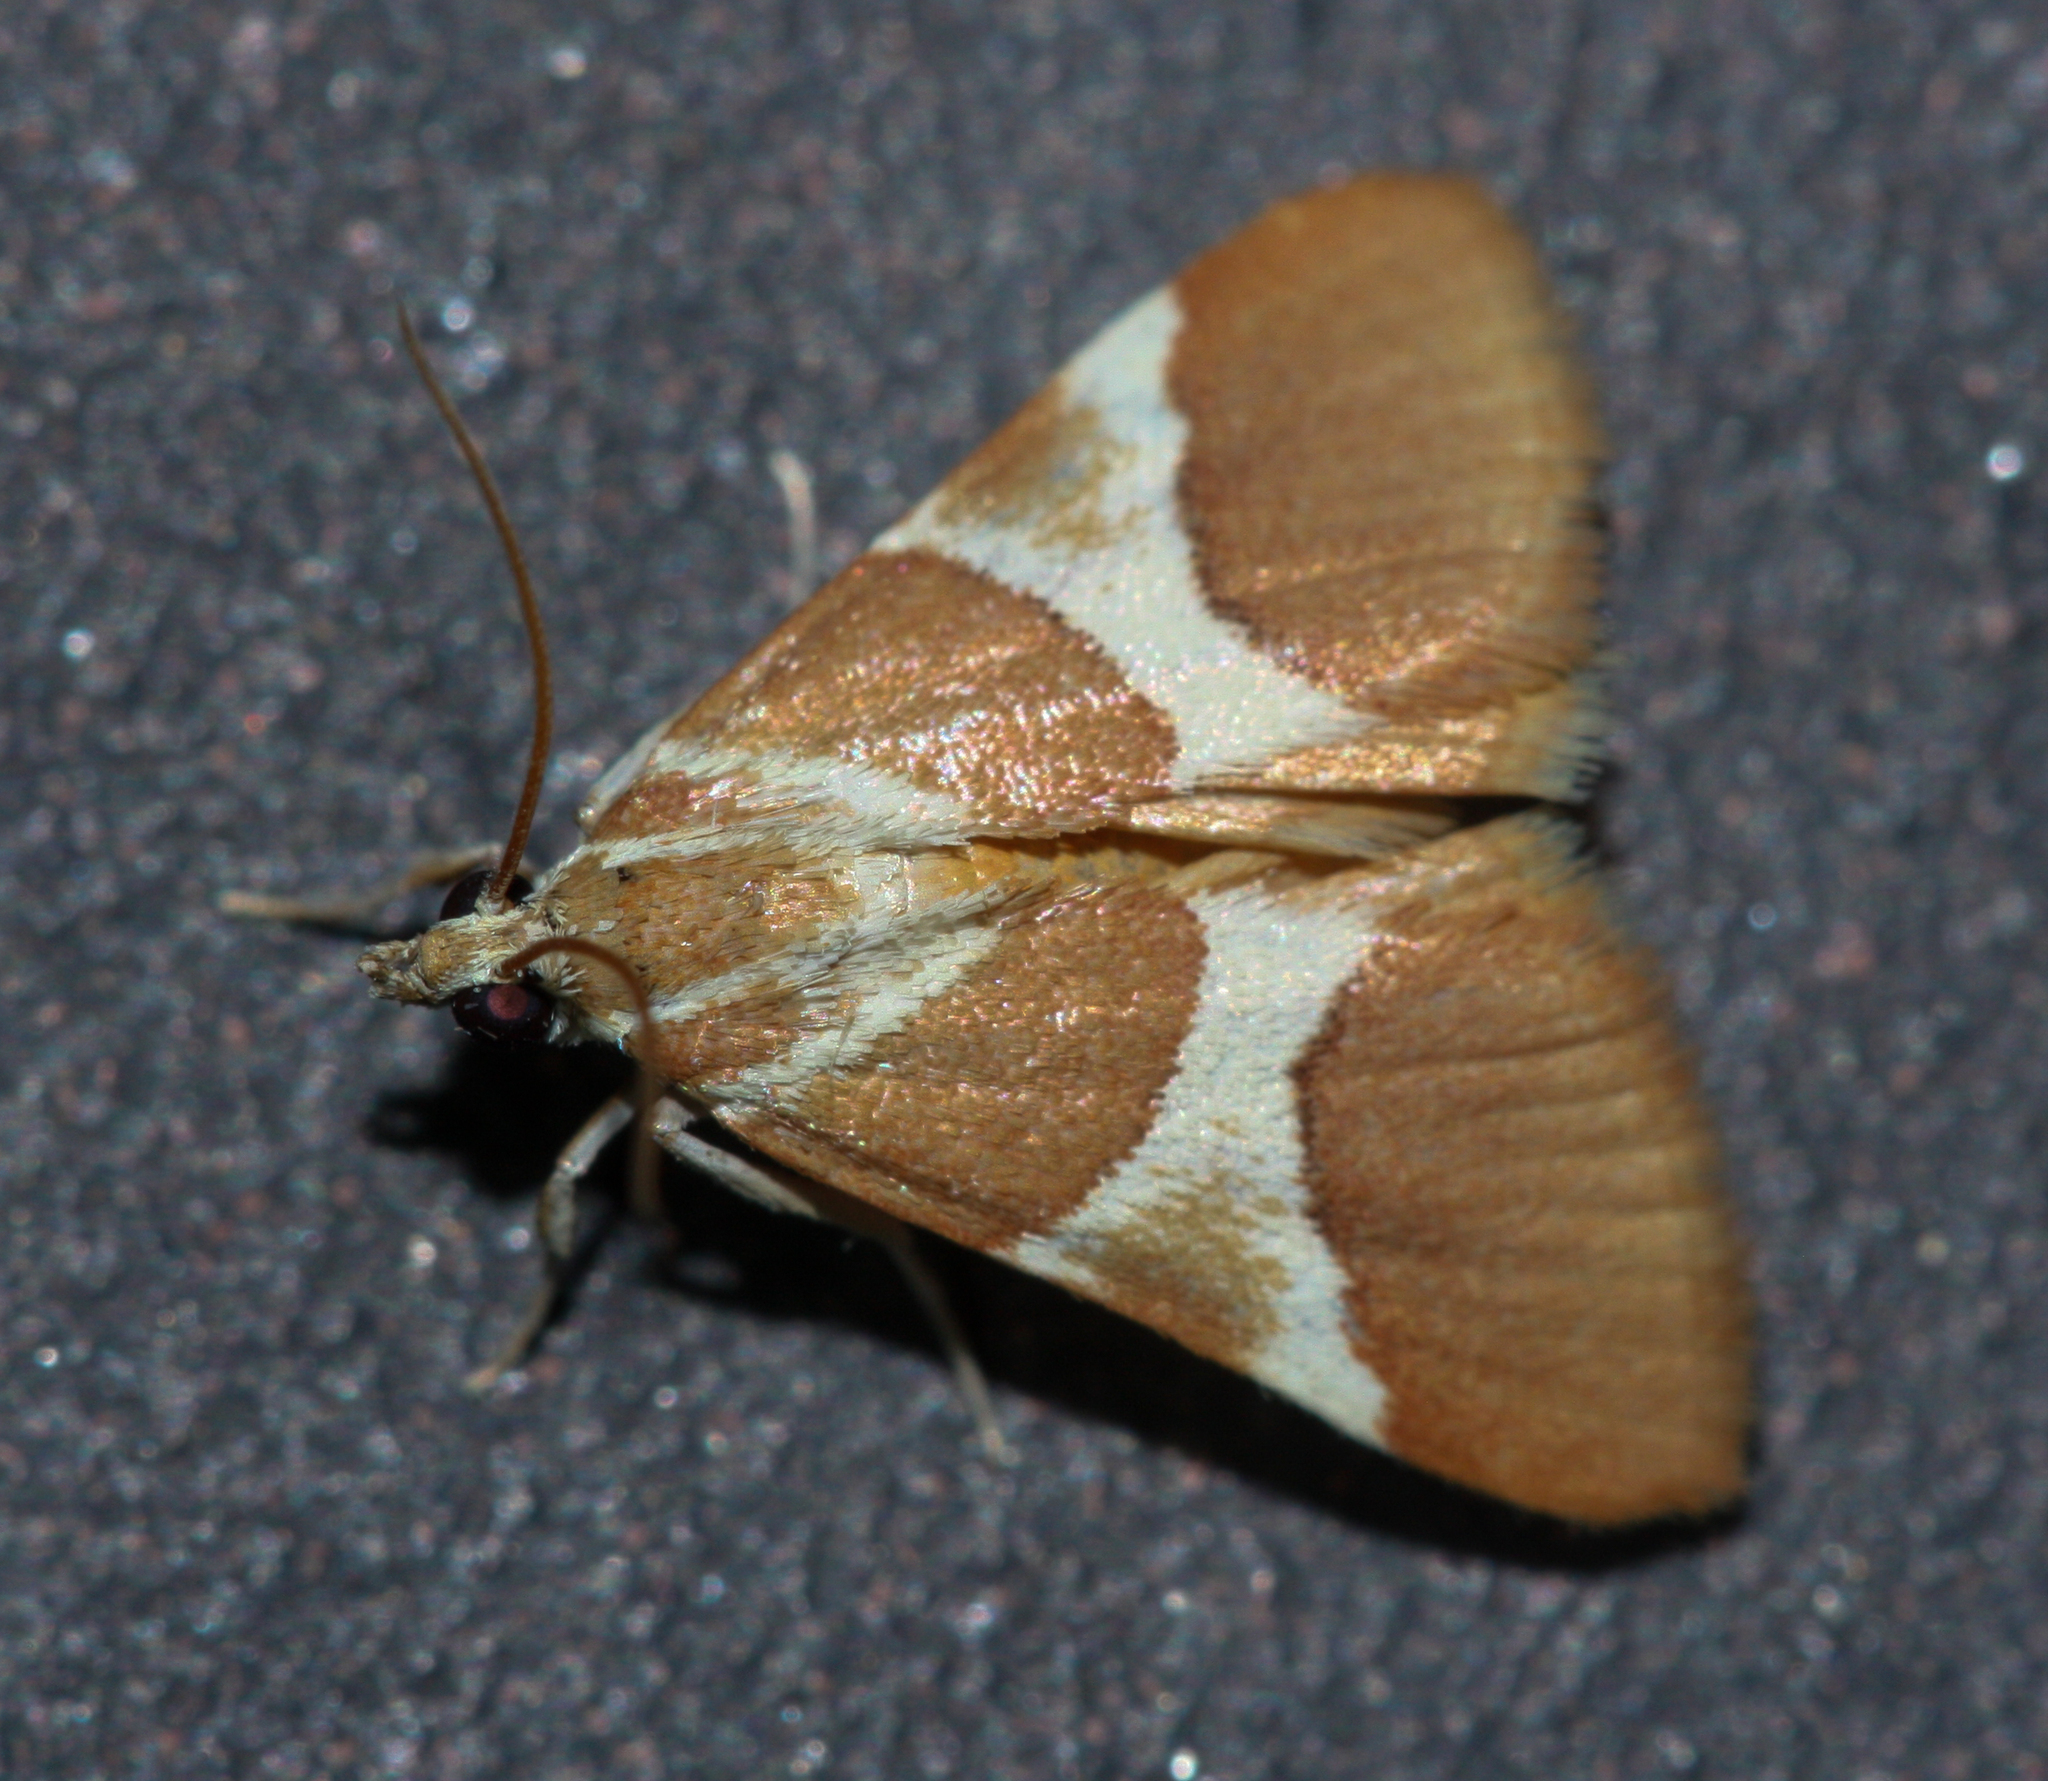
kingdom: Animalia
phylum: Arthropoda
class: Insecta
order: Lepidoptera
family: Crambidae
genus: Jativa
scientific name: Jativa castanealis
